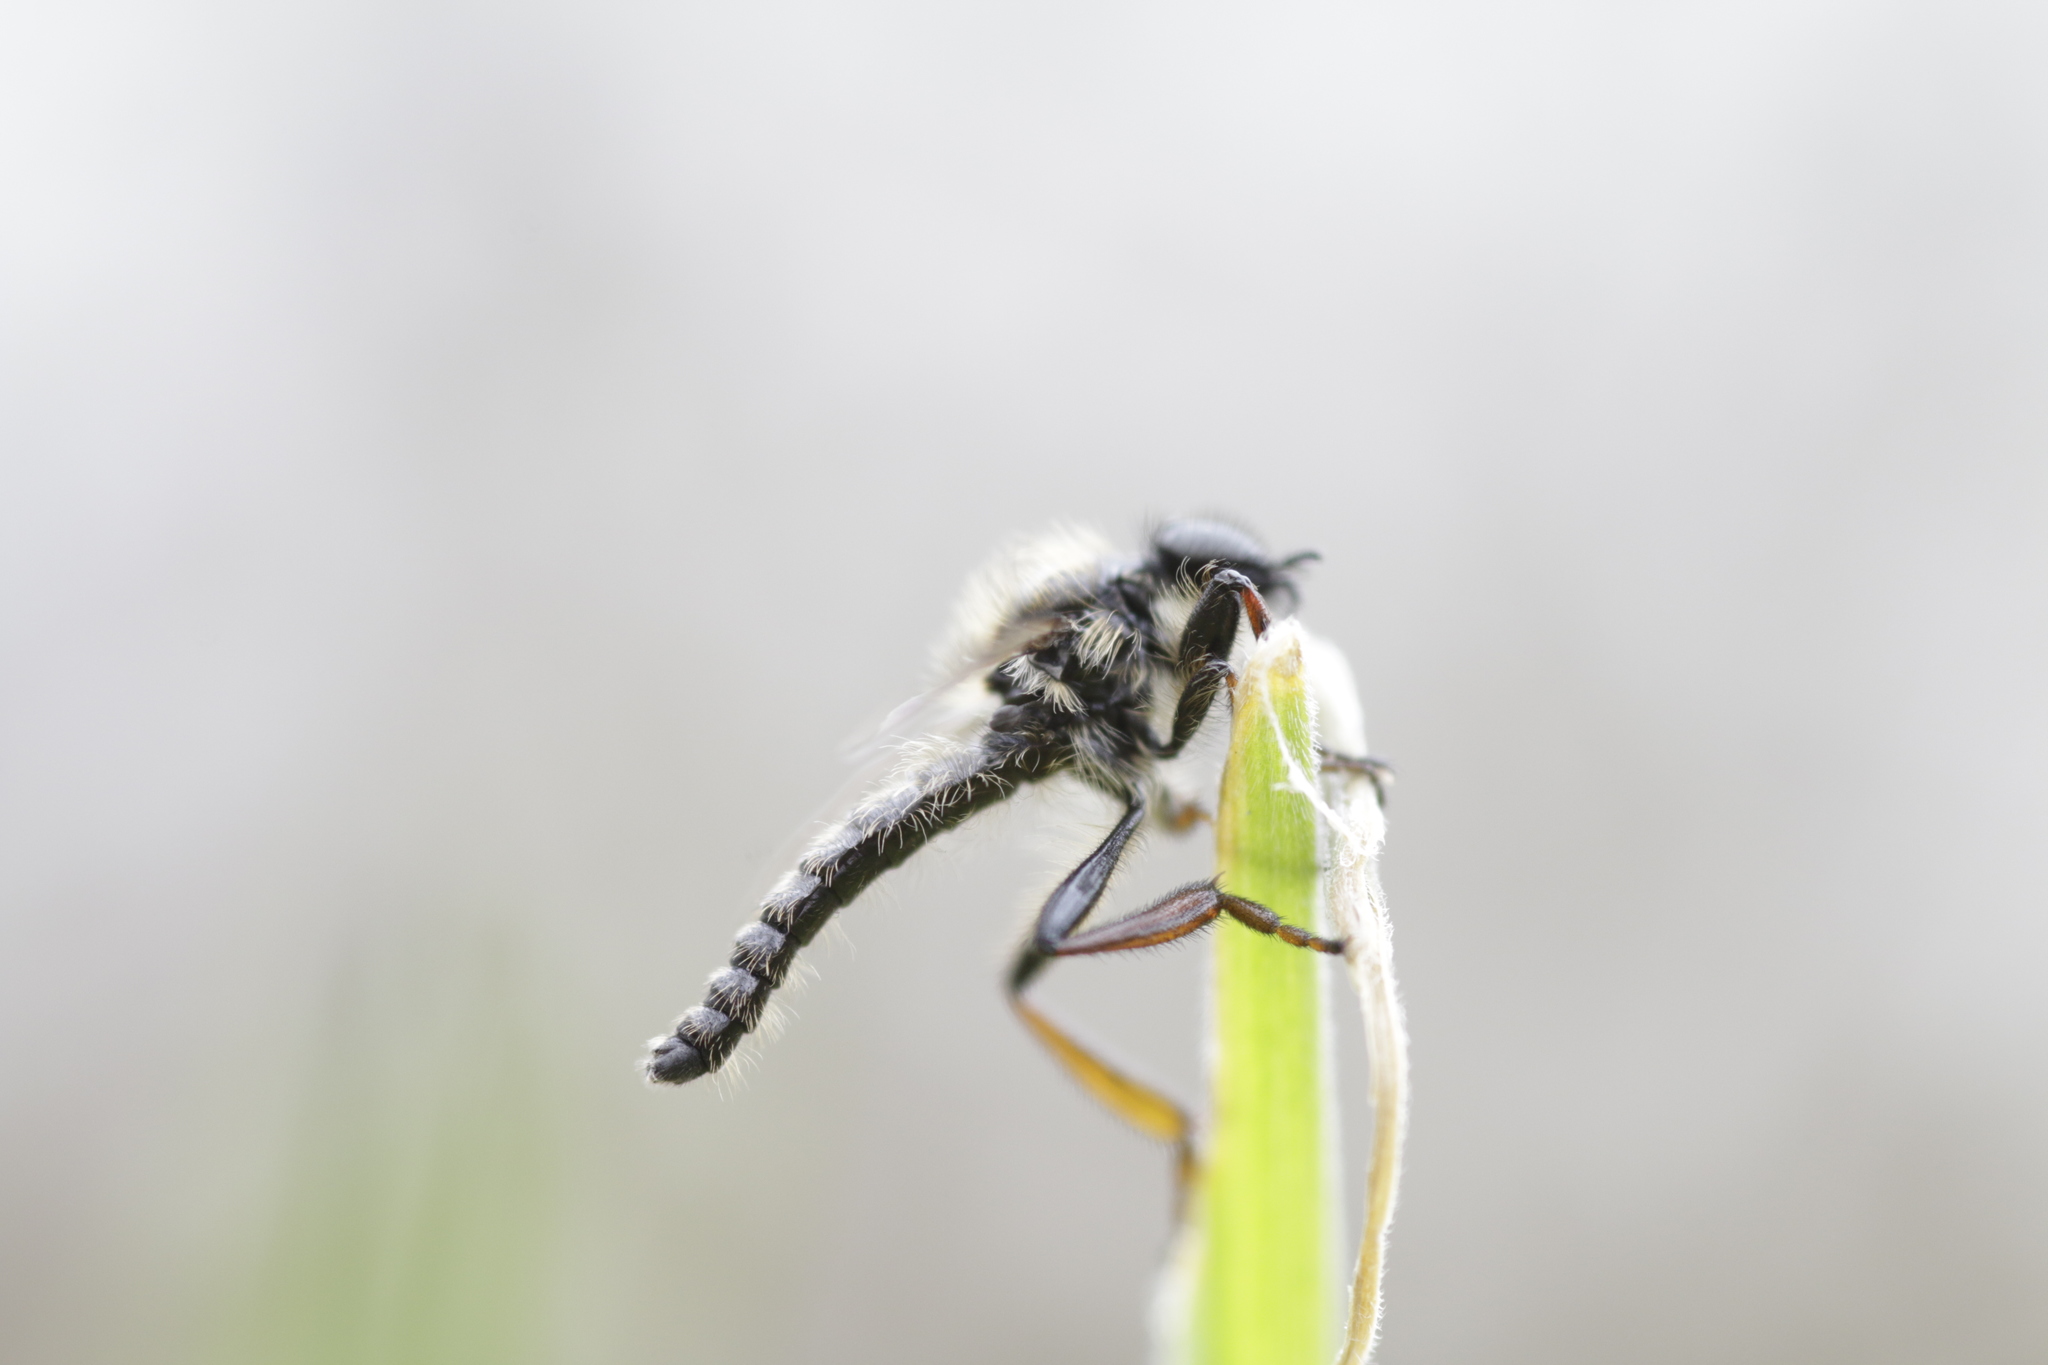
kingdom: Animalia
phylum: Arthropoda
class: Insecta
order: Diptera
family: Bibionidae
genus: Bibio
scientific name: Bibio lanigerus
